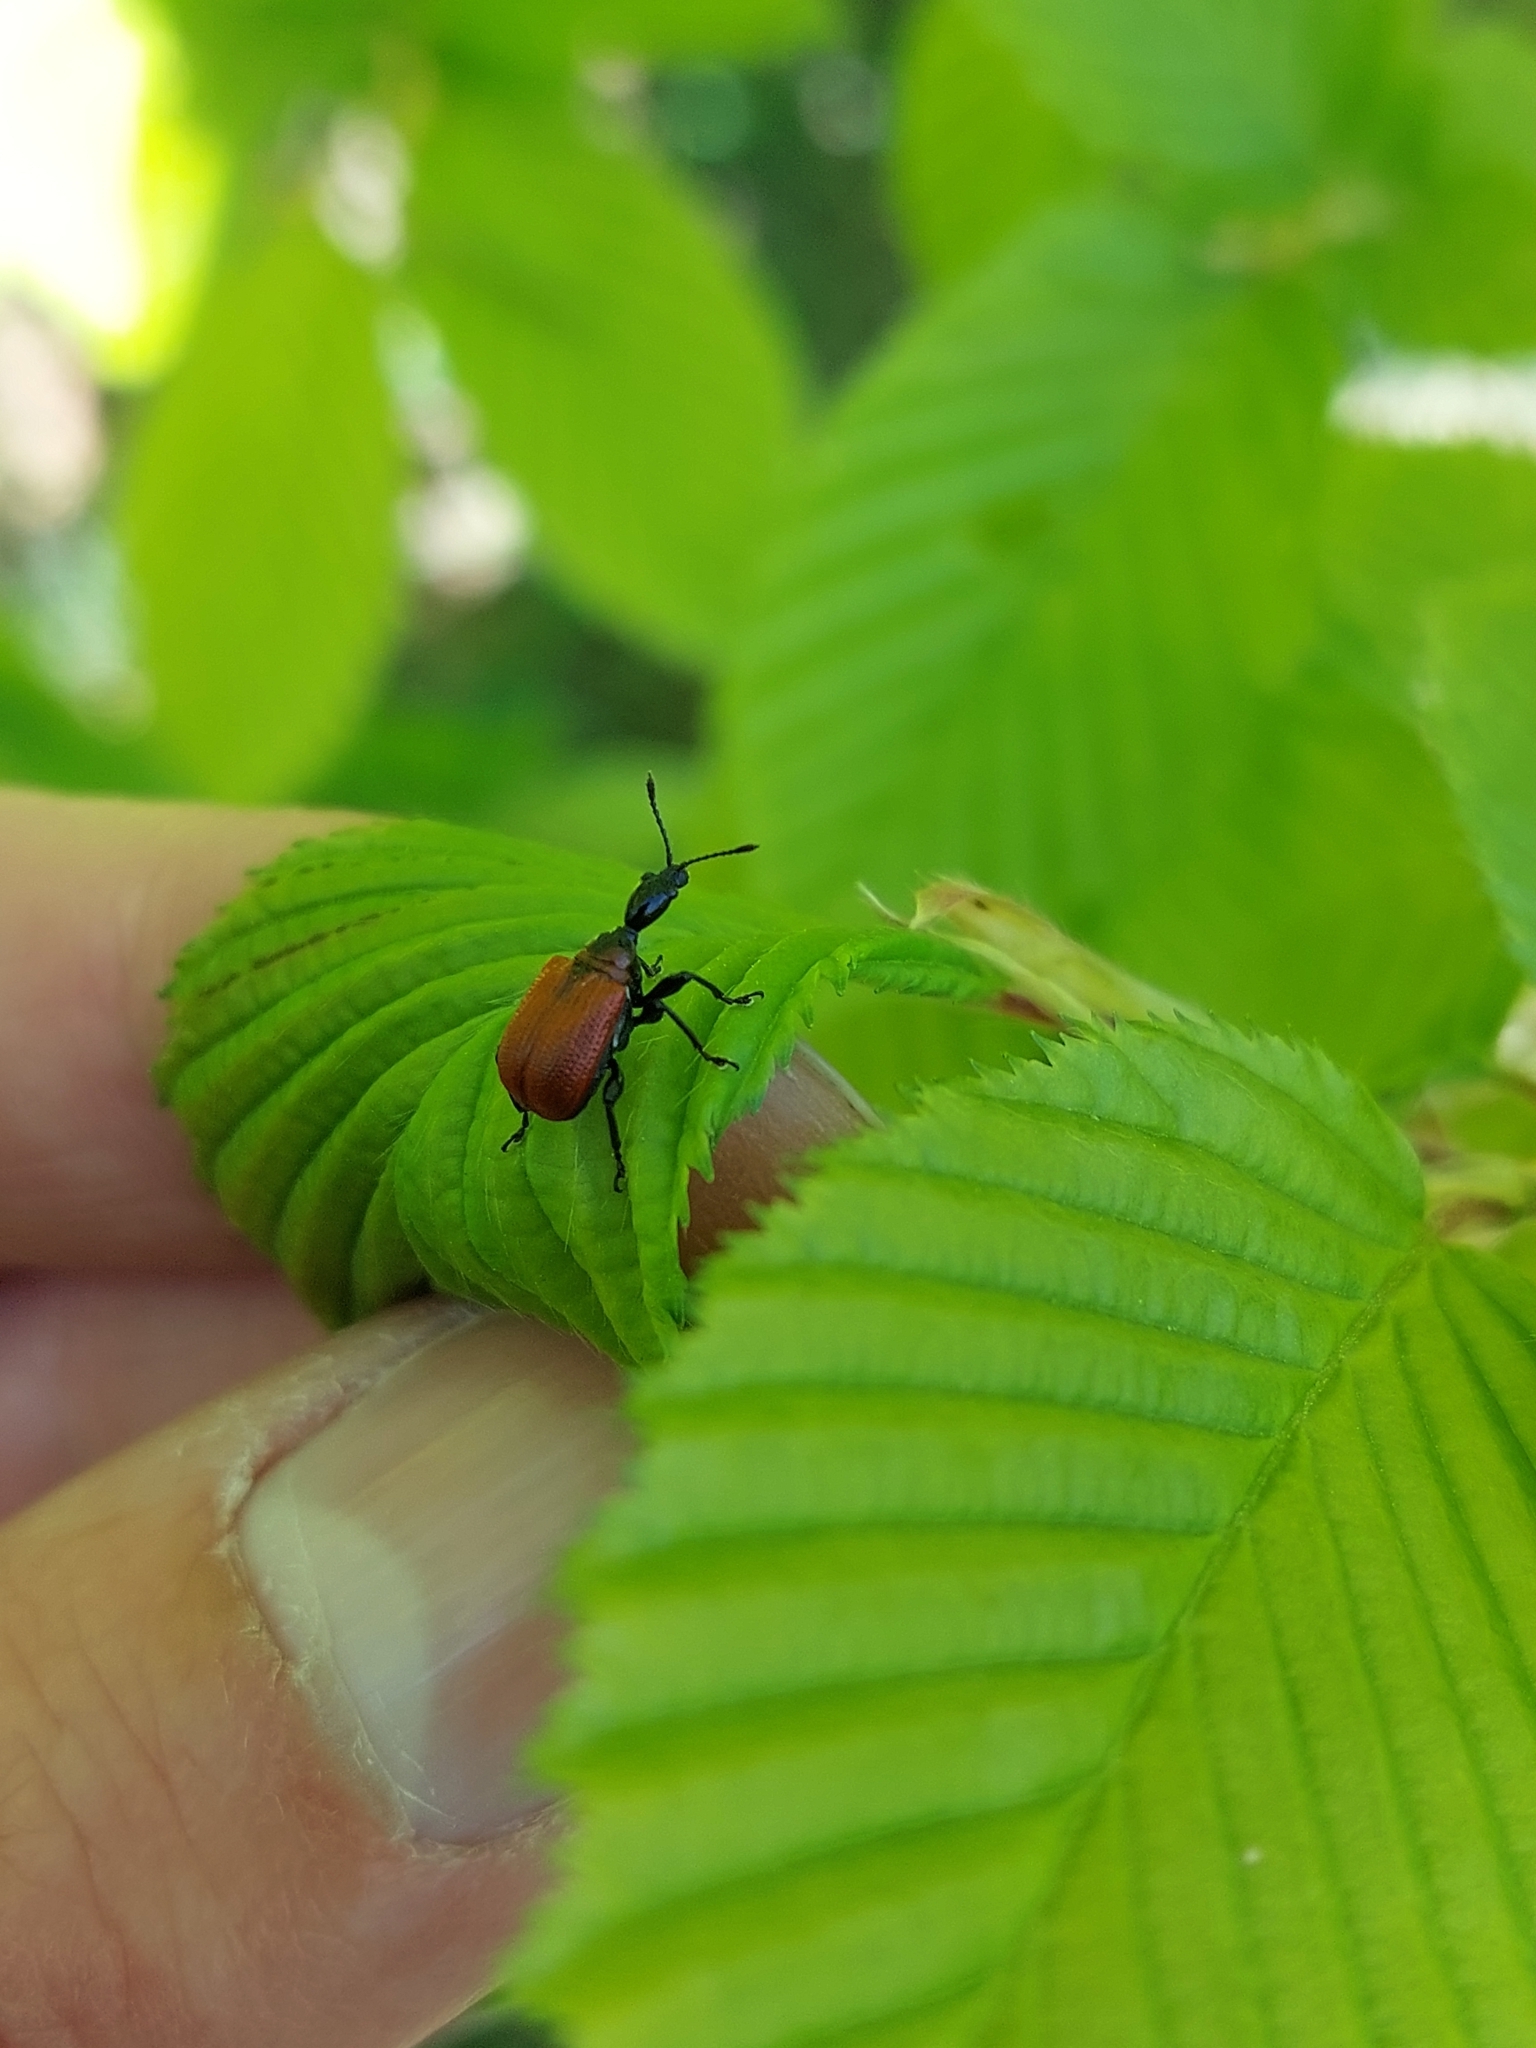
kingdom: Animalia
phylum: Arthropoda
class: Insecta
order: Coleoptera
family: Attelabidae
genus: Apoderus
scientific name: Apoderus coryli
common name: Hazel leaf roller
